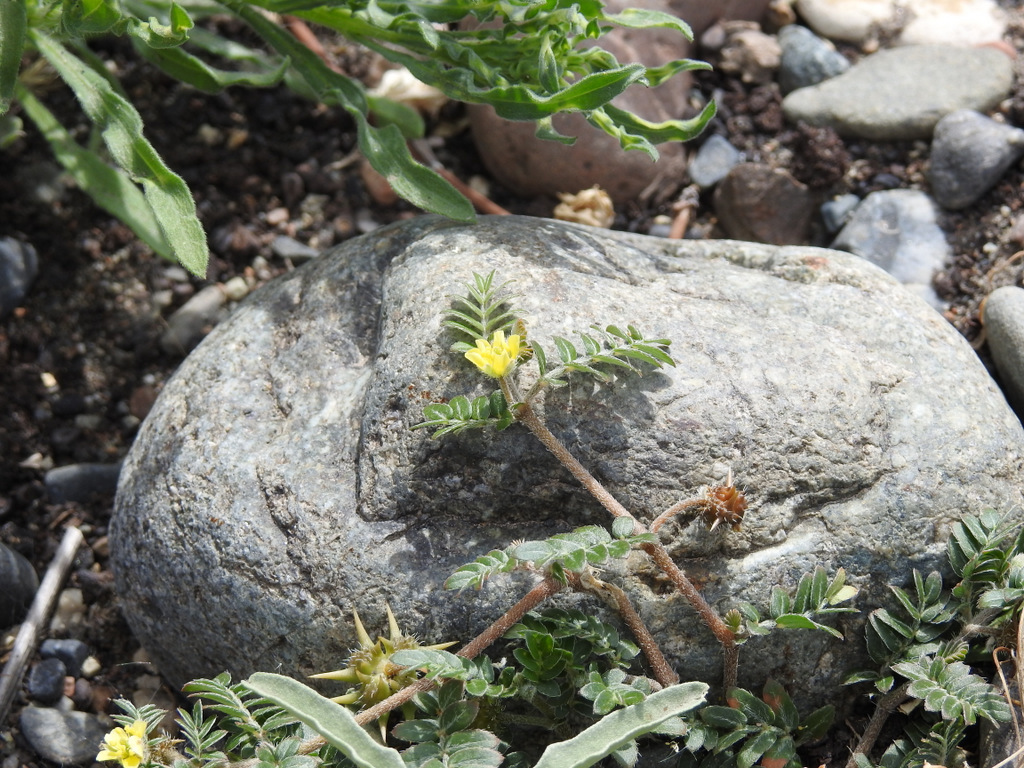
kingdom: Plantae
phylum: Tracheophyta
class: Magnoliopsida
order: Zygophyllales
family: Zygophyllaceae
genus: Tribulus
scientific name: Tribulus terrestris
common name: Puncturevine
